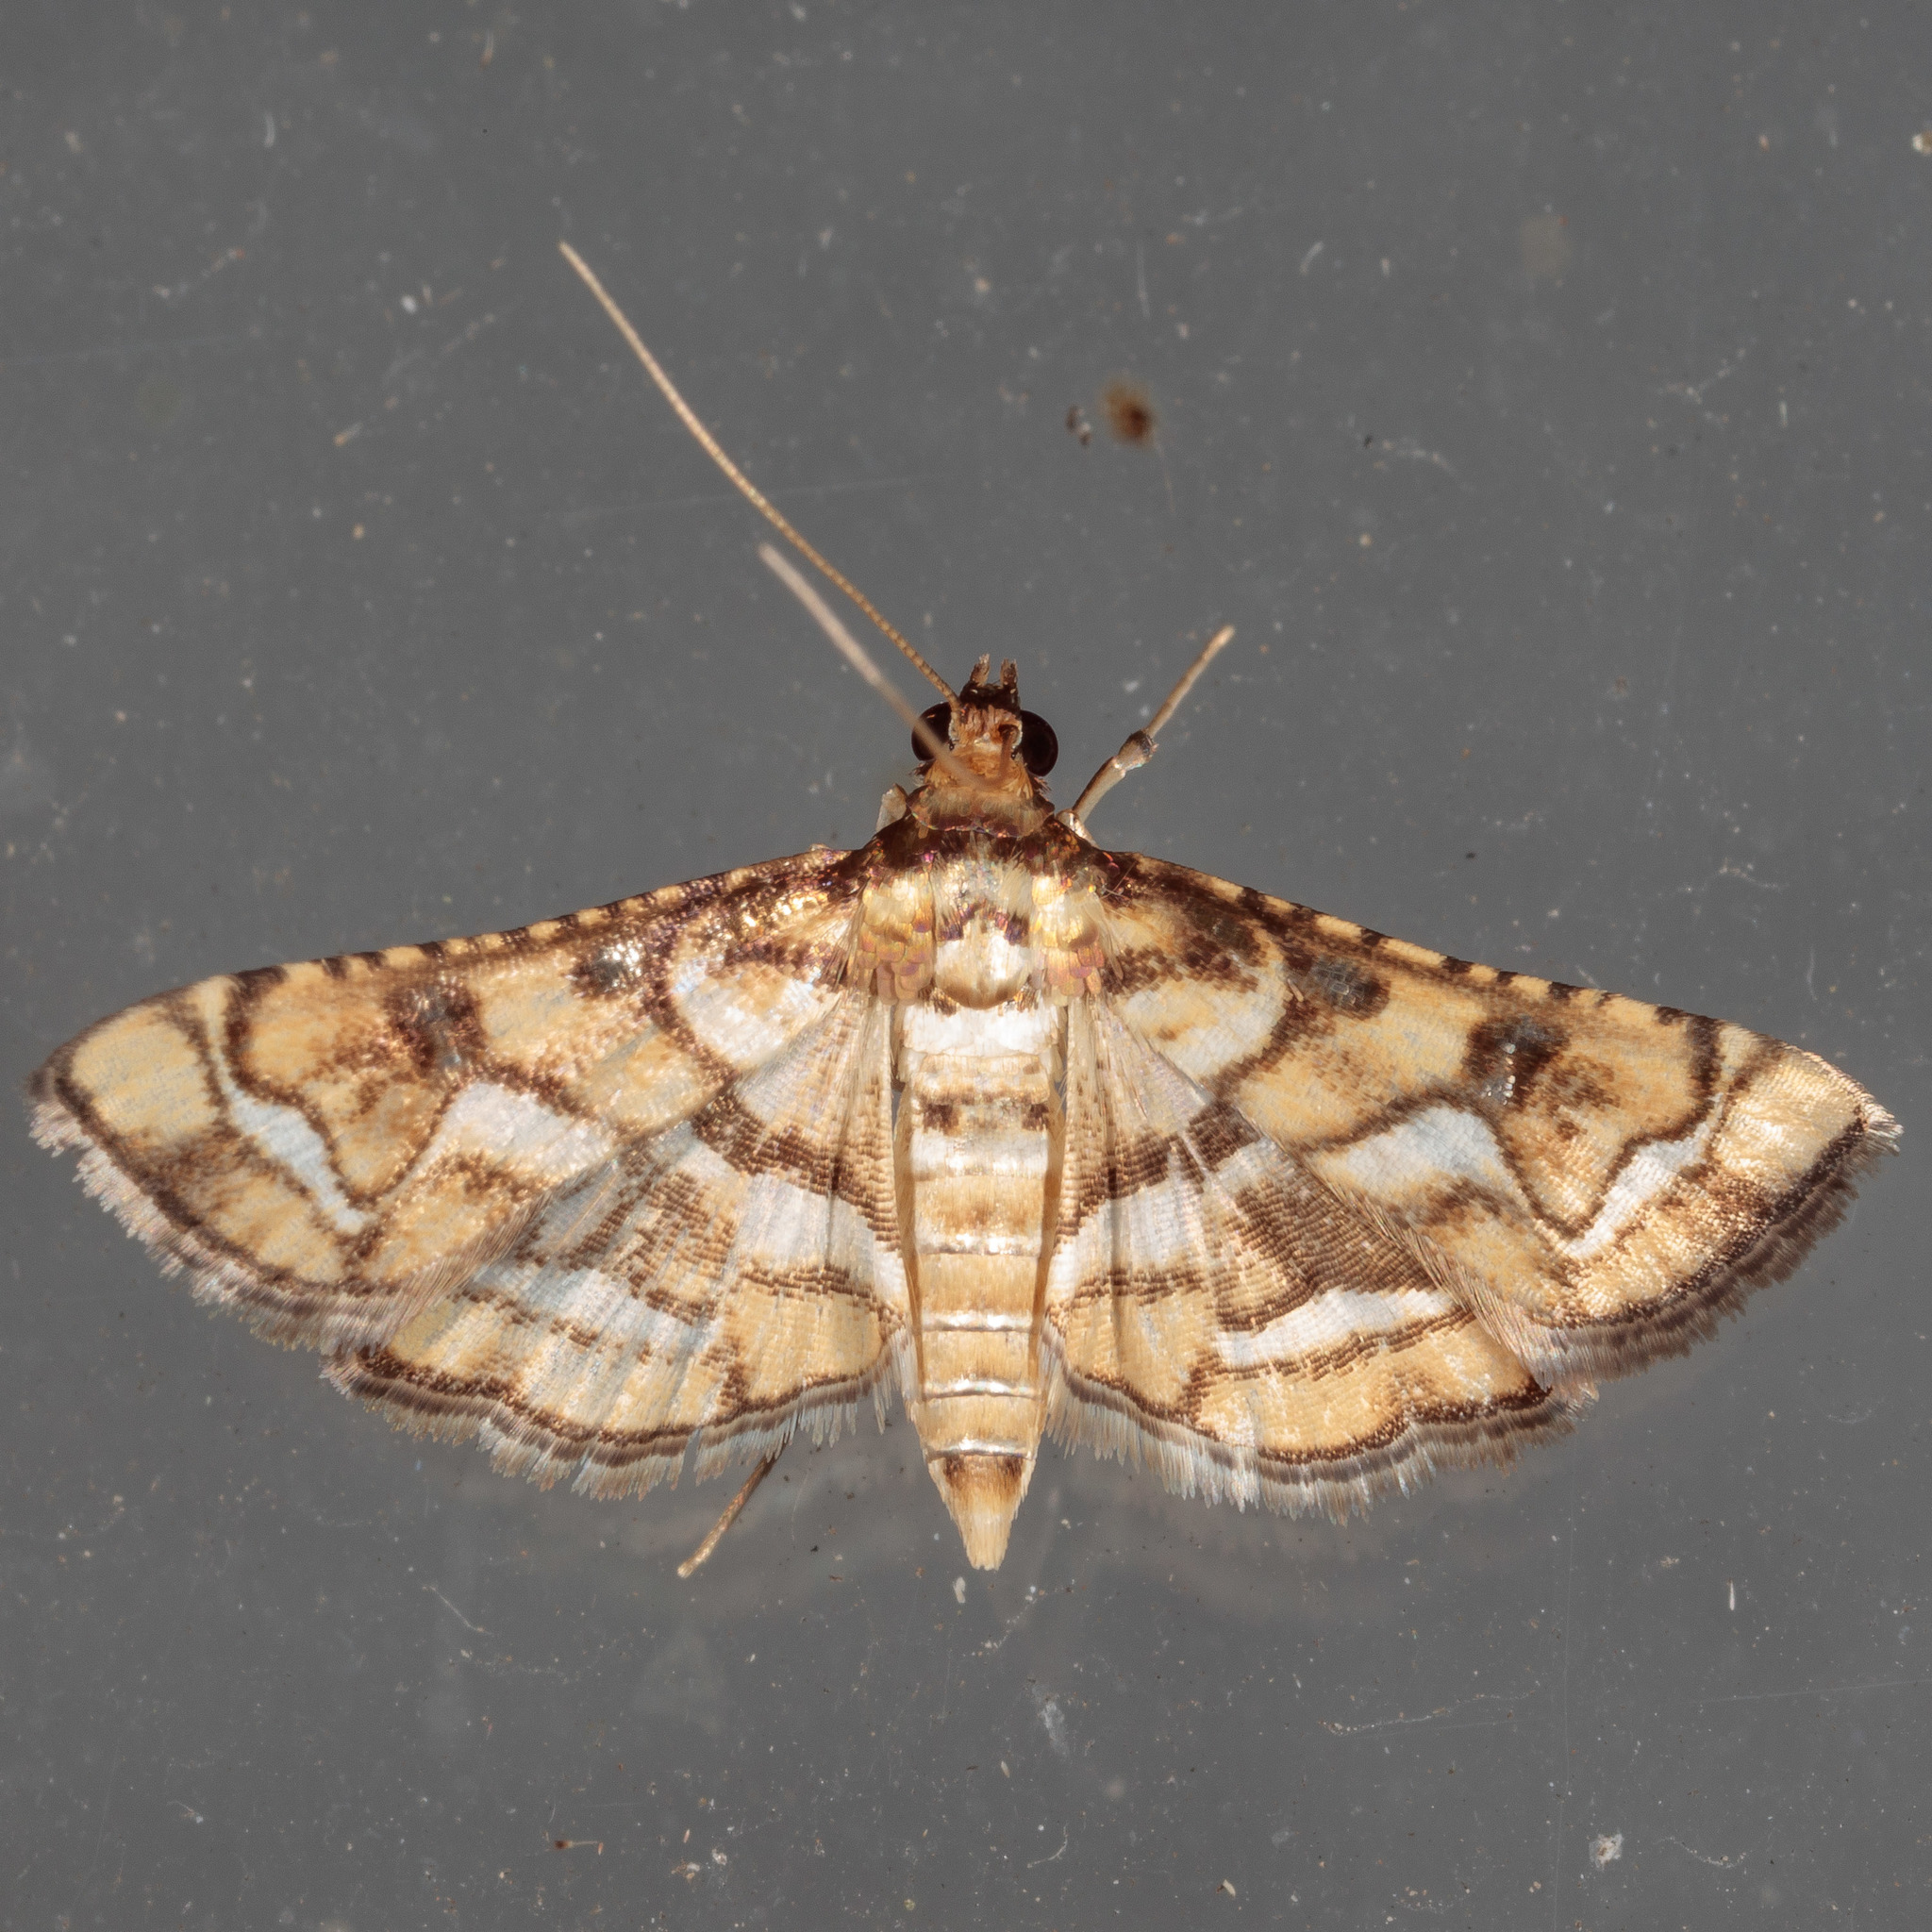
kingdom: Animalia
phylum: Arthropoda
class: Insecta
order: Lepidoptera
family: Crambidae
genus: Hileithia
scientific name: Hileithia magualis
